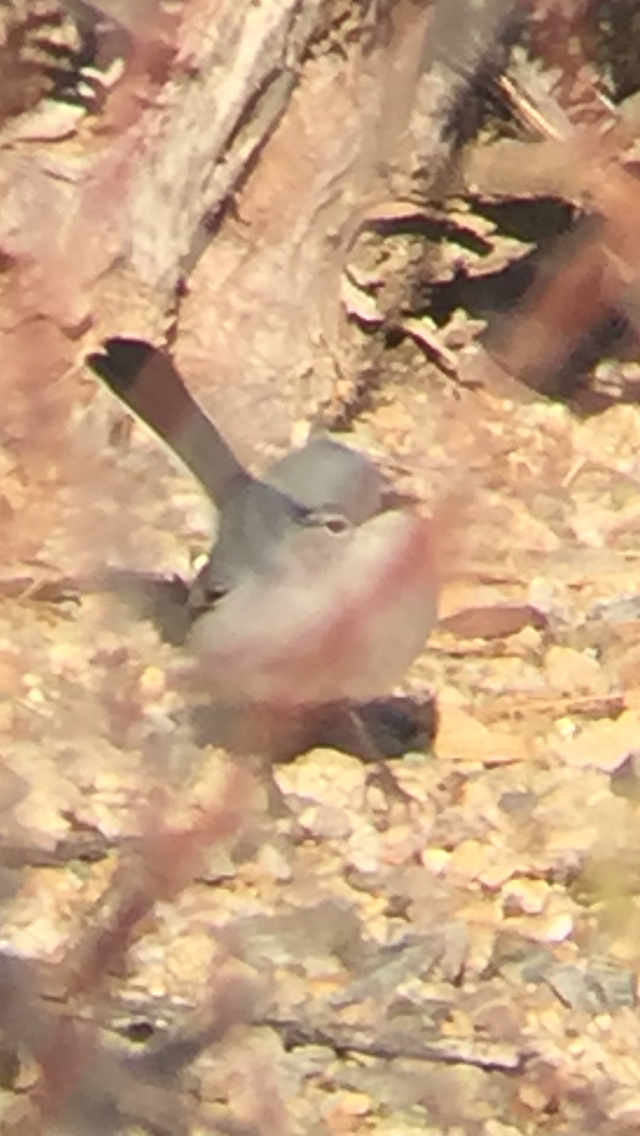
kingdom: Animalia
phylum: Chordata
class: Aves
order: Passeriformes
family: Polioptilidae
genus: Polioptila
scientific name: Polioptila caerulea
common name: Blue-gray gnatcatcher
